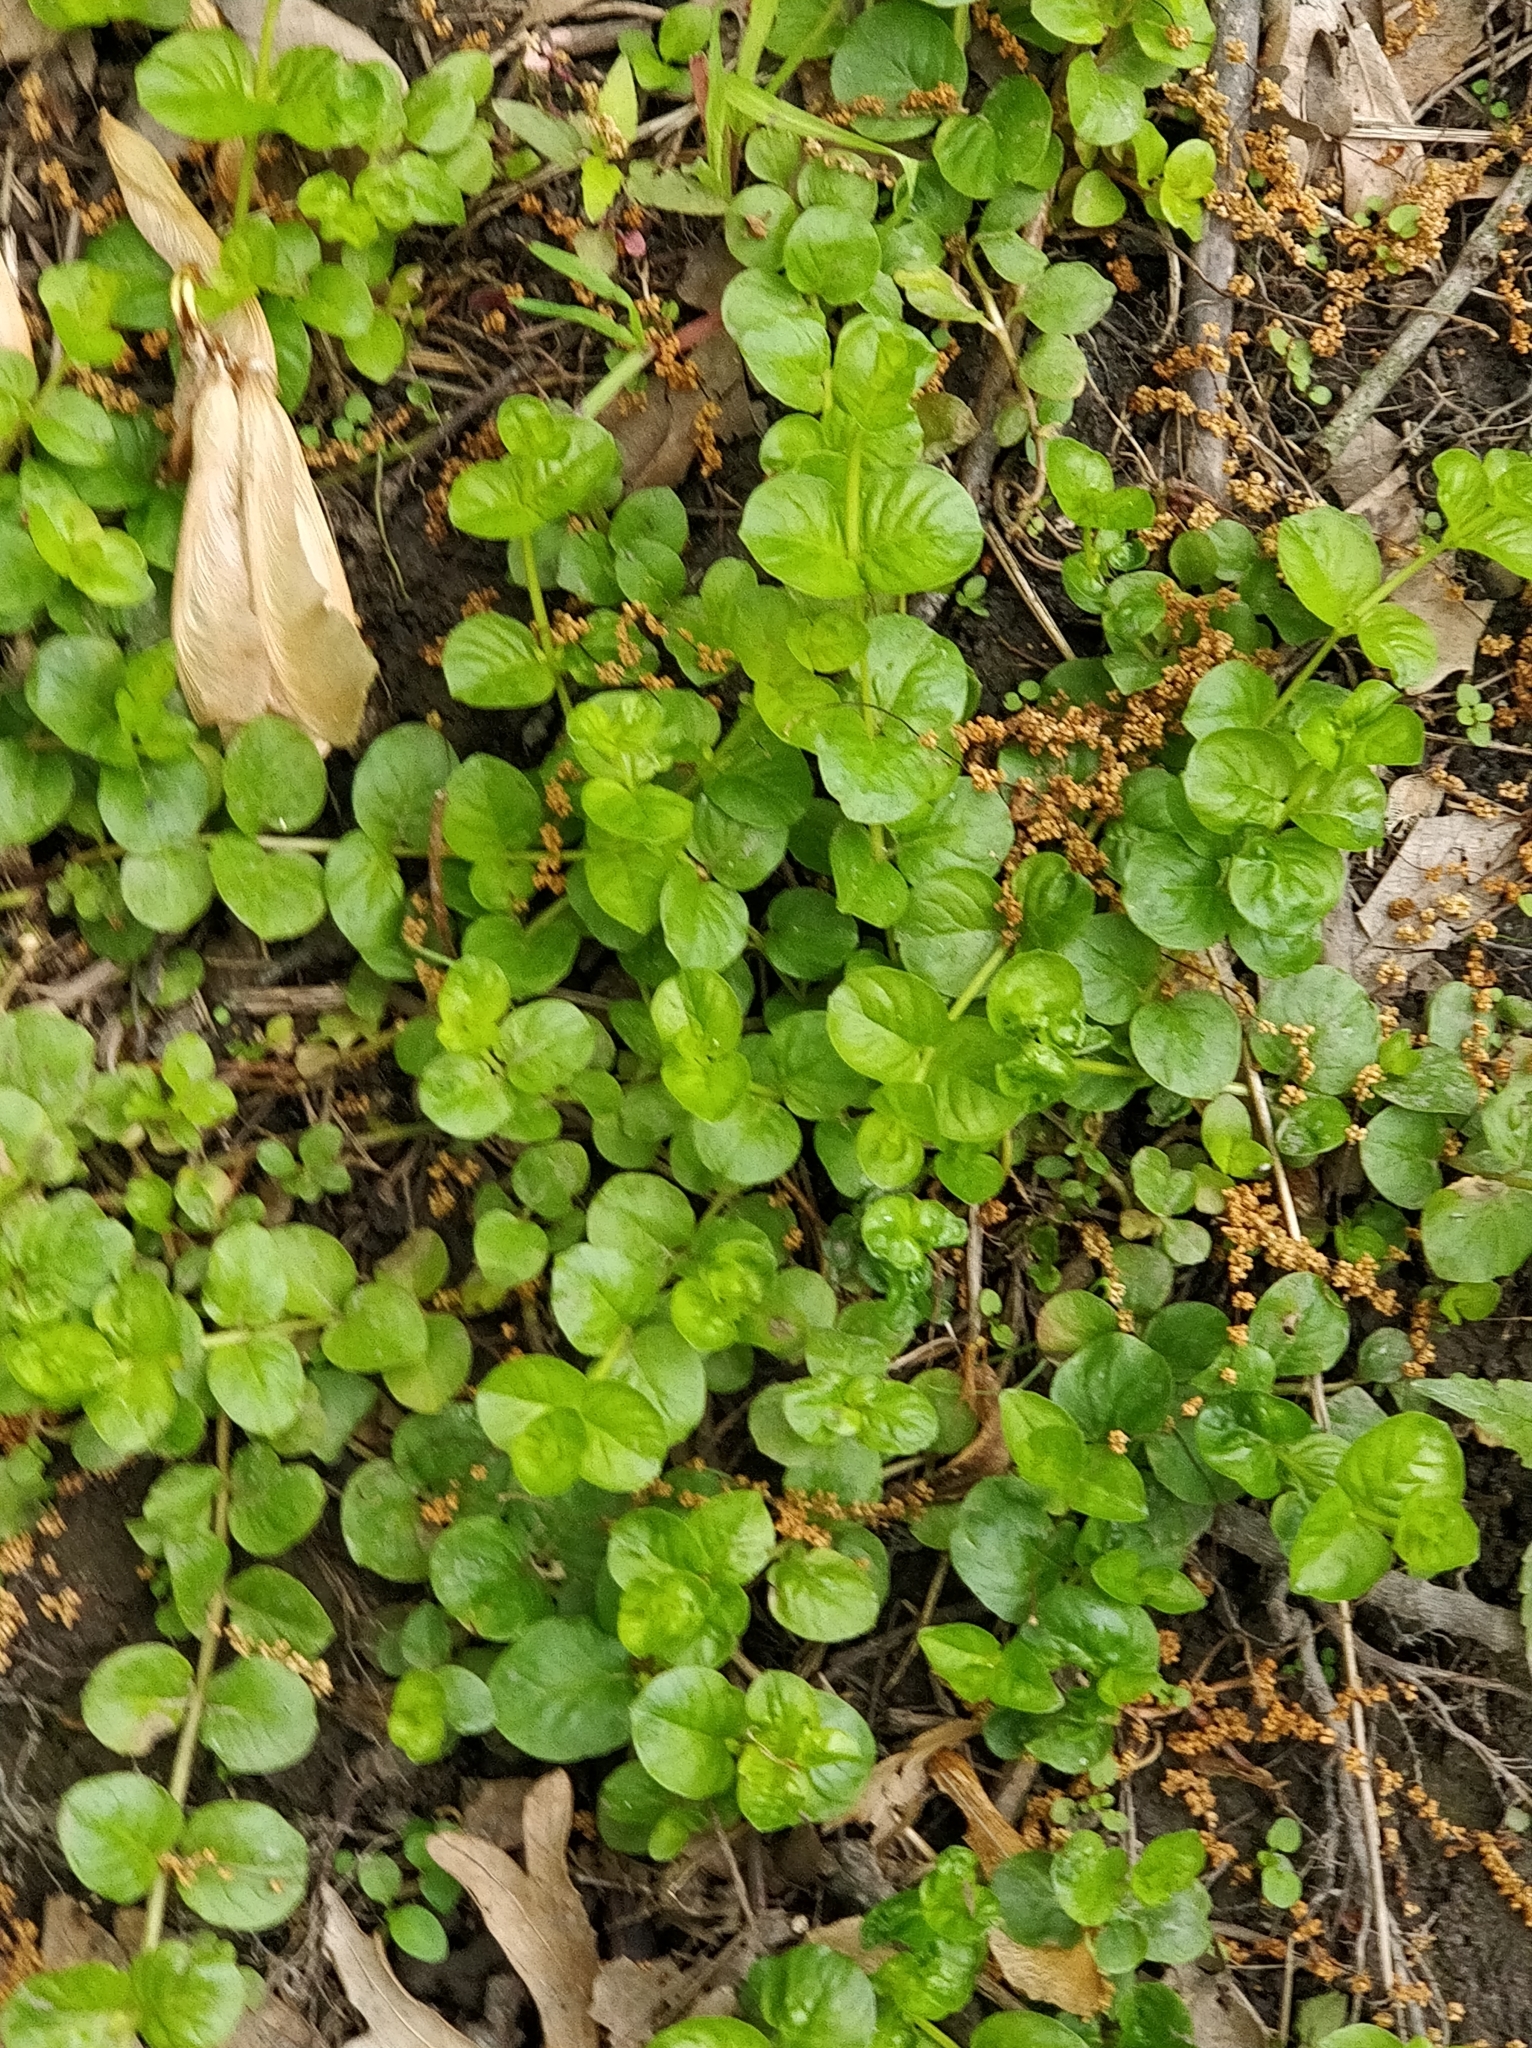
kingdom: Plantae
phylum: Tracheophyta
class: Magnoliopsida
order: Ericales
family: Primulaceae
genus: Lysimachia
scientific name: Lysimachia nummularia
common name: Moneywort
